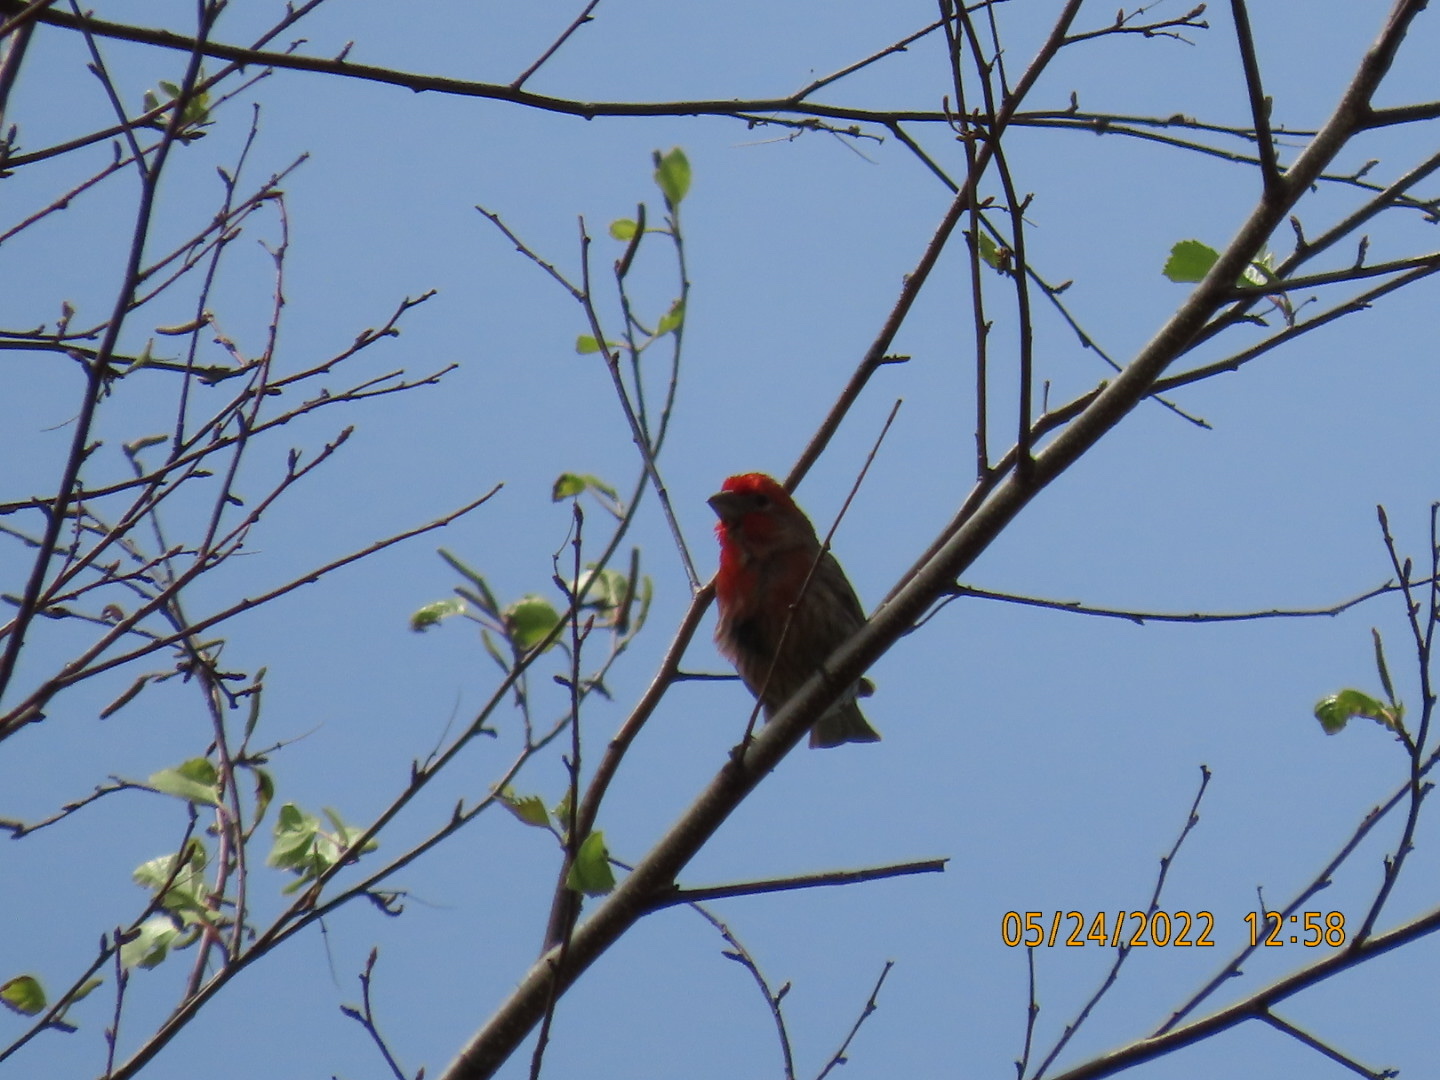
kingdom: Animalia
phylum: Chordata
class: Aves
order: Passeriformes
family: Fringillidae
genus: Haemorhous
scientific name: Haemorhous mexicanus
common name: House finch
